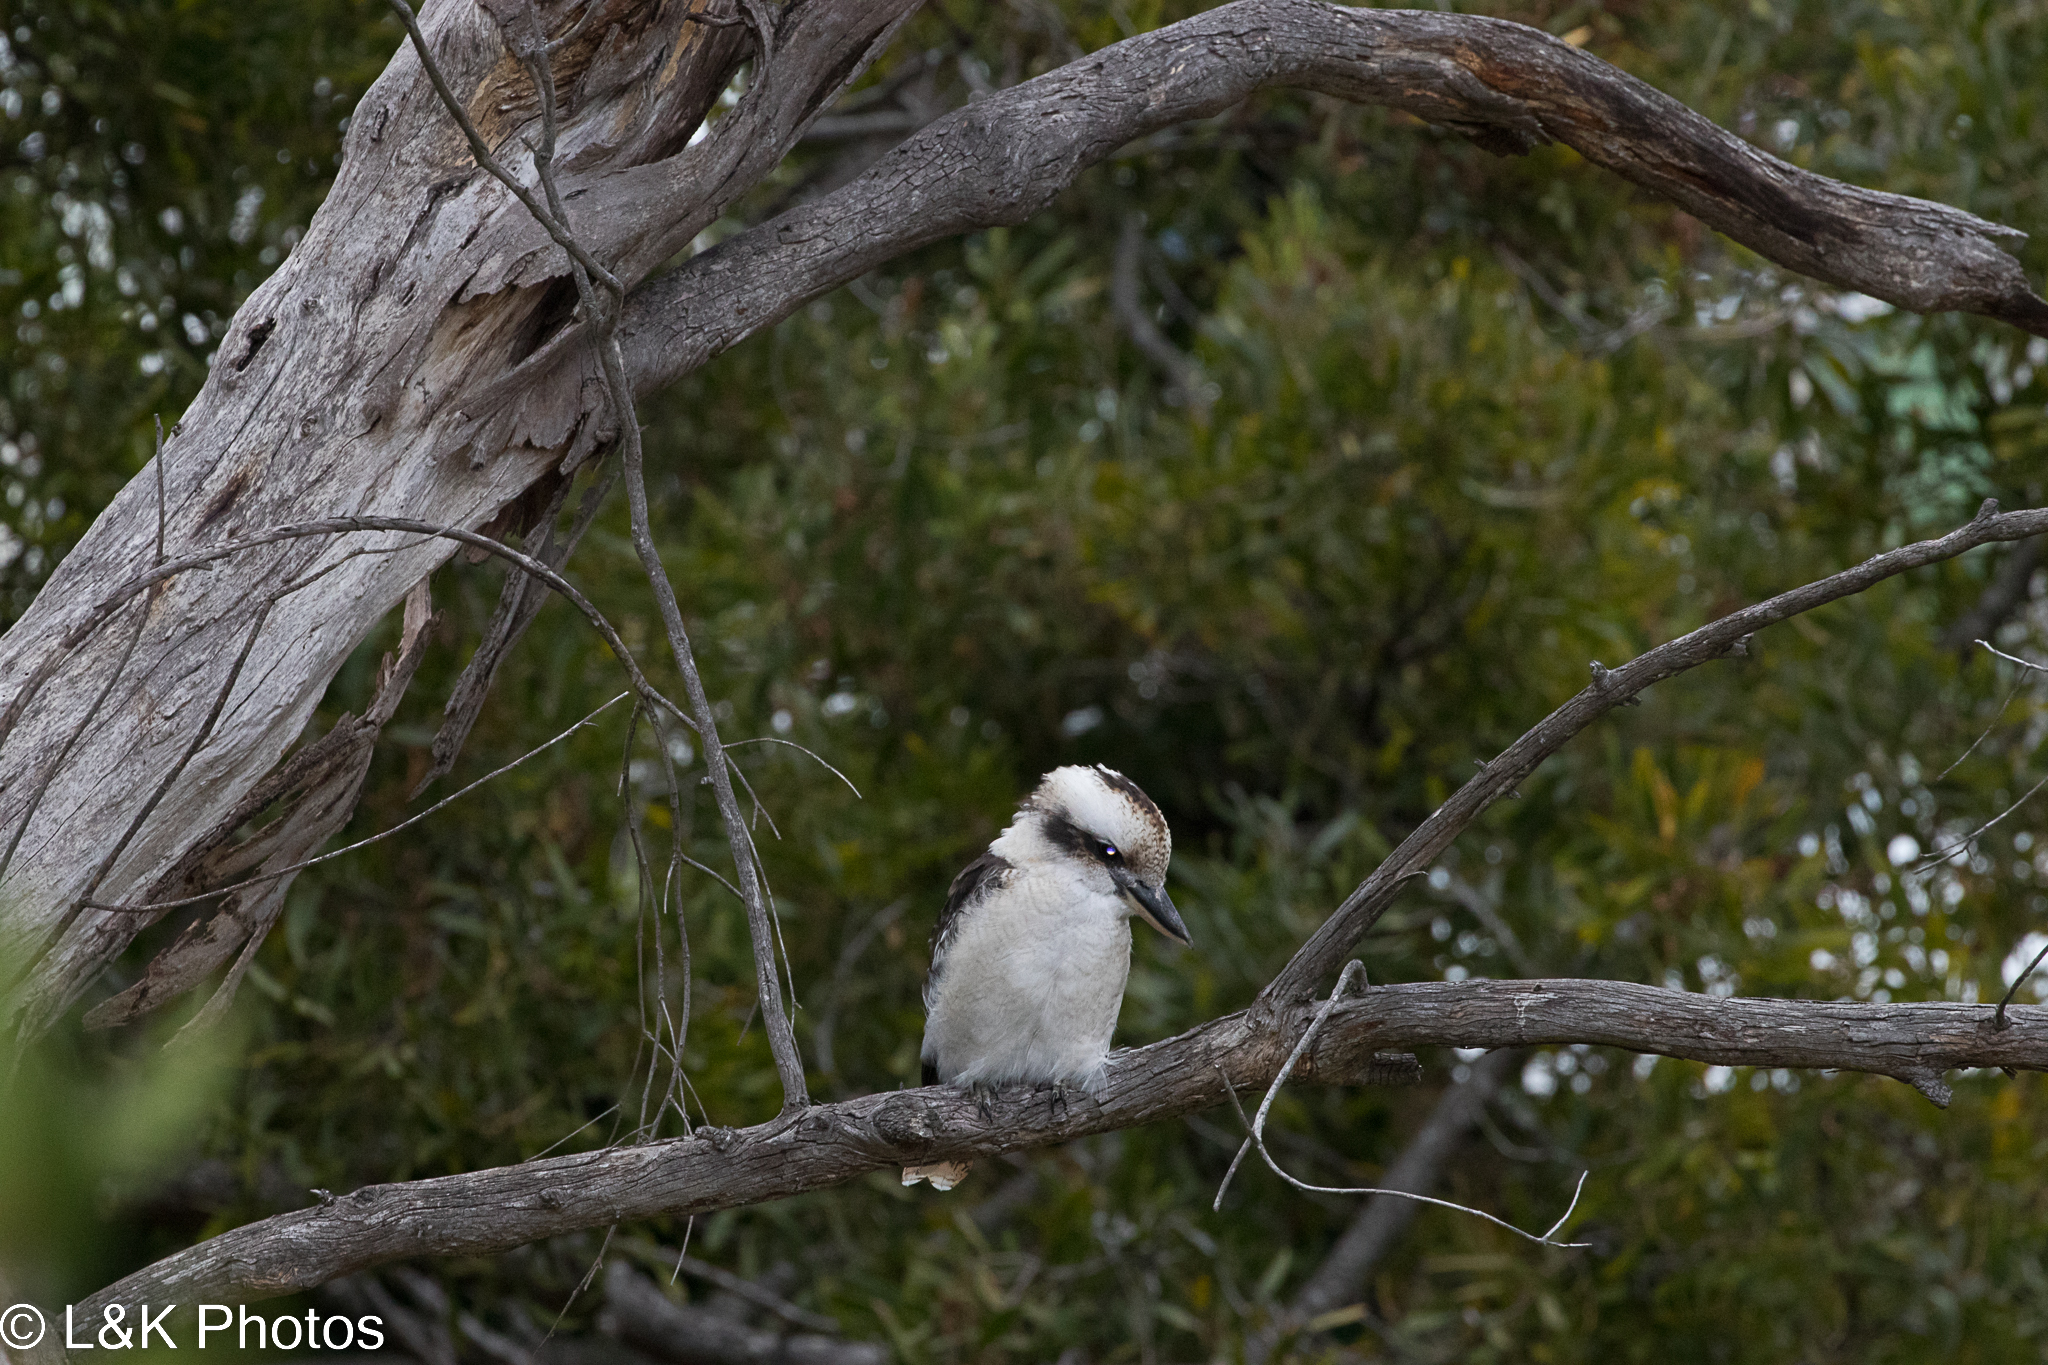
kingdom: Animalia
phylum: Chordata
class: Aves
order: Coraciiformes
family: Alcedinidae
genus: Dacelo
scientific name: Dacelo novaeguineae
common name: Laughing kookaburra
